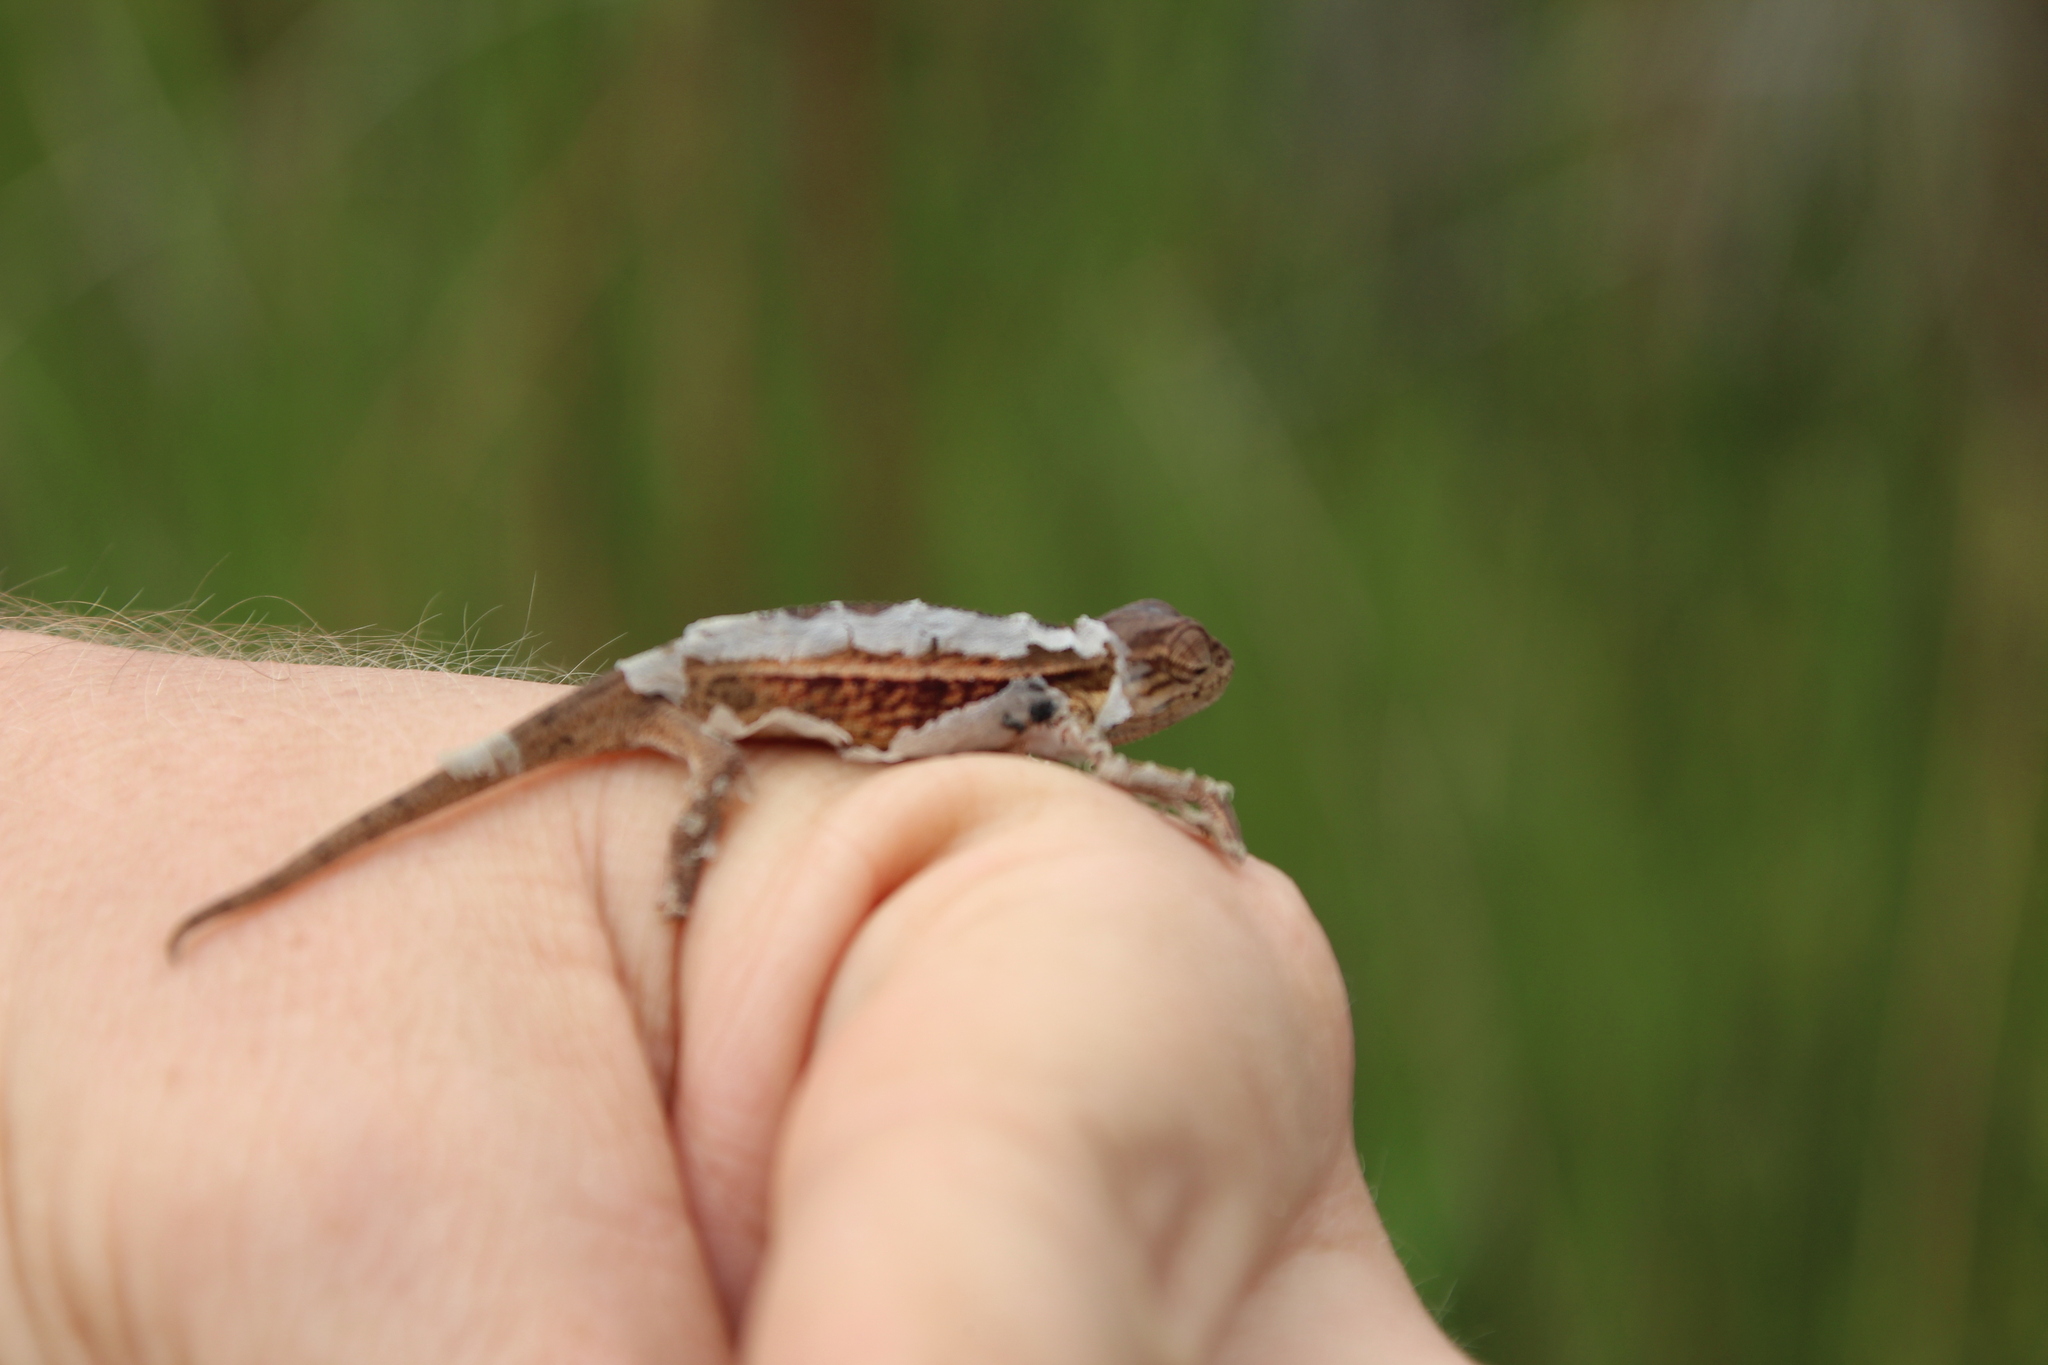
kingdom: Animalia
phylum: Chordata
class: Squamata
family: Chamaeleonidae
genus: Trioceros
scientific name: Trioceros ellioti
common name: Montane side-striped chameleon
